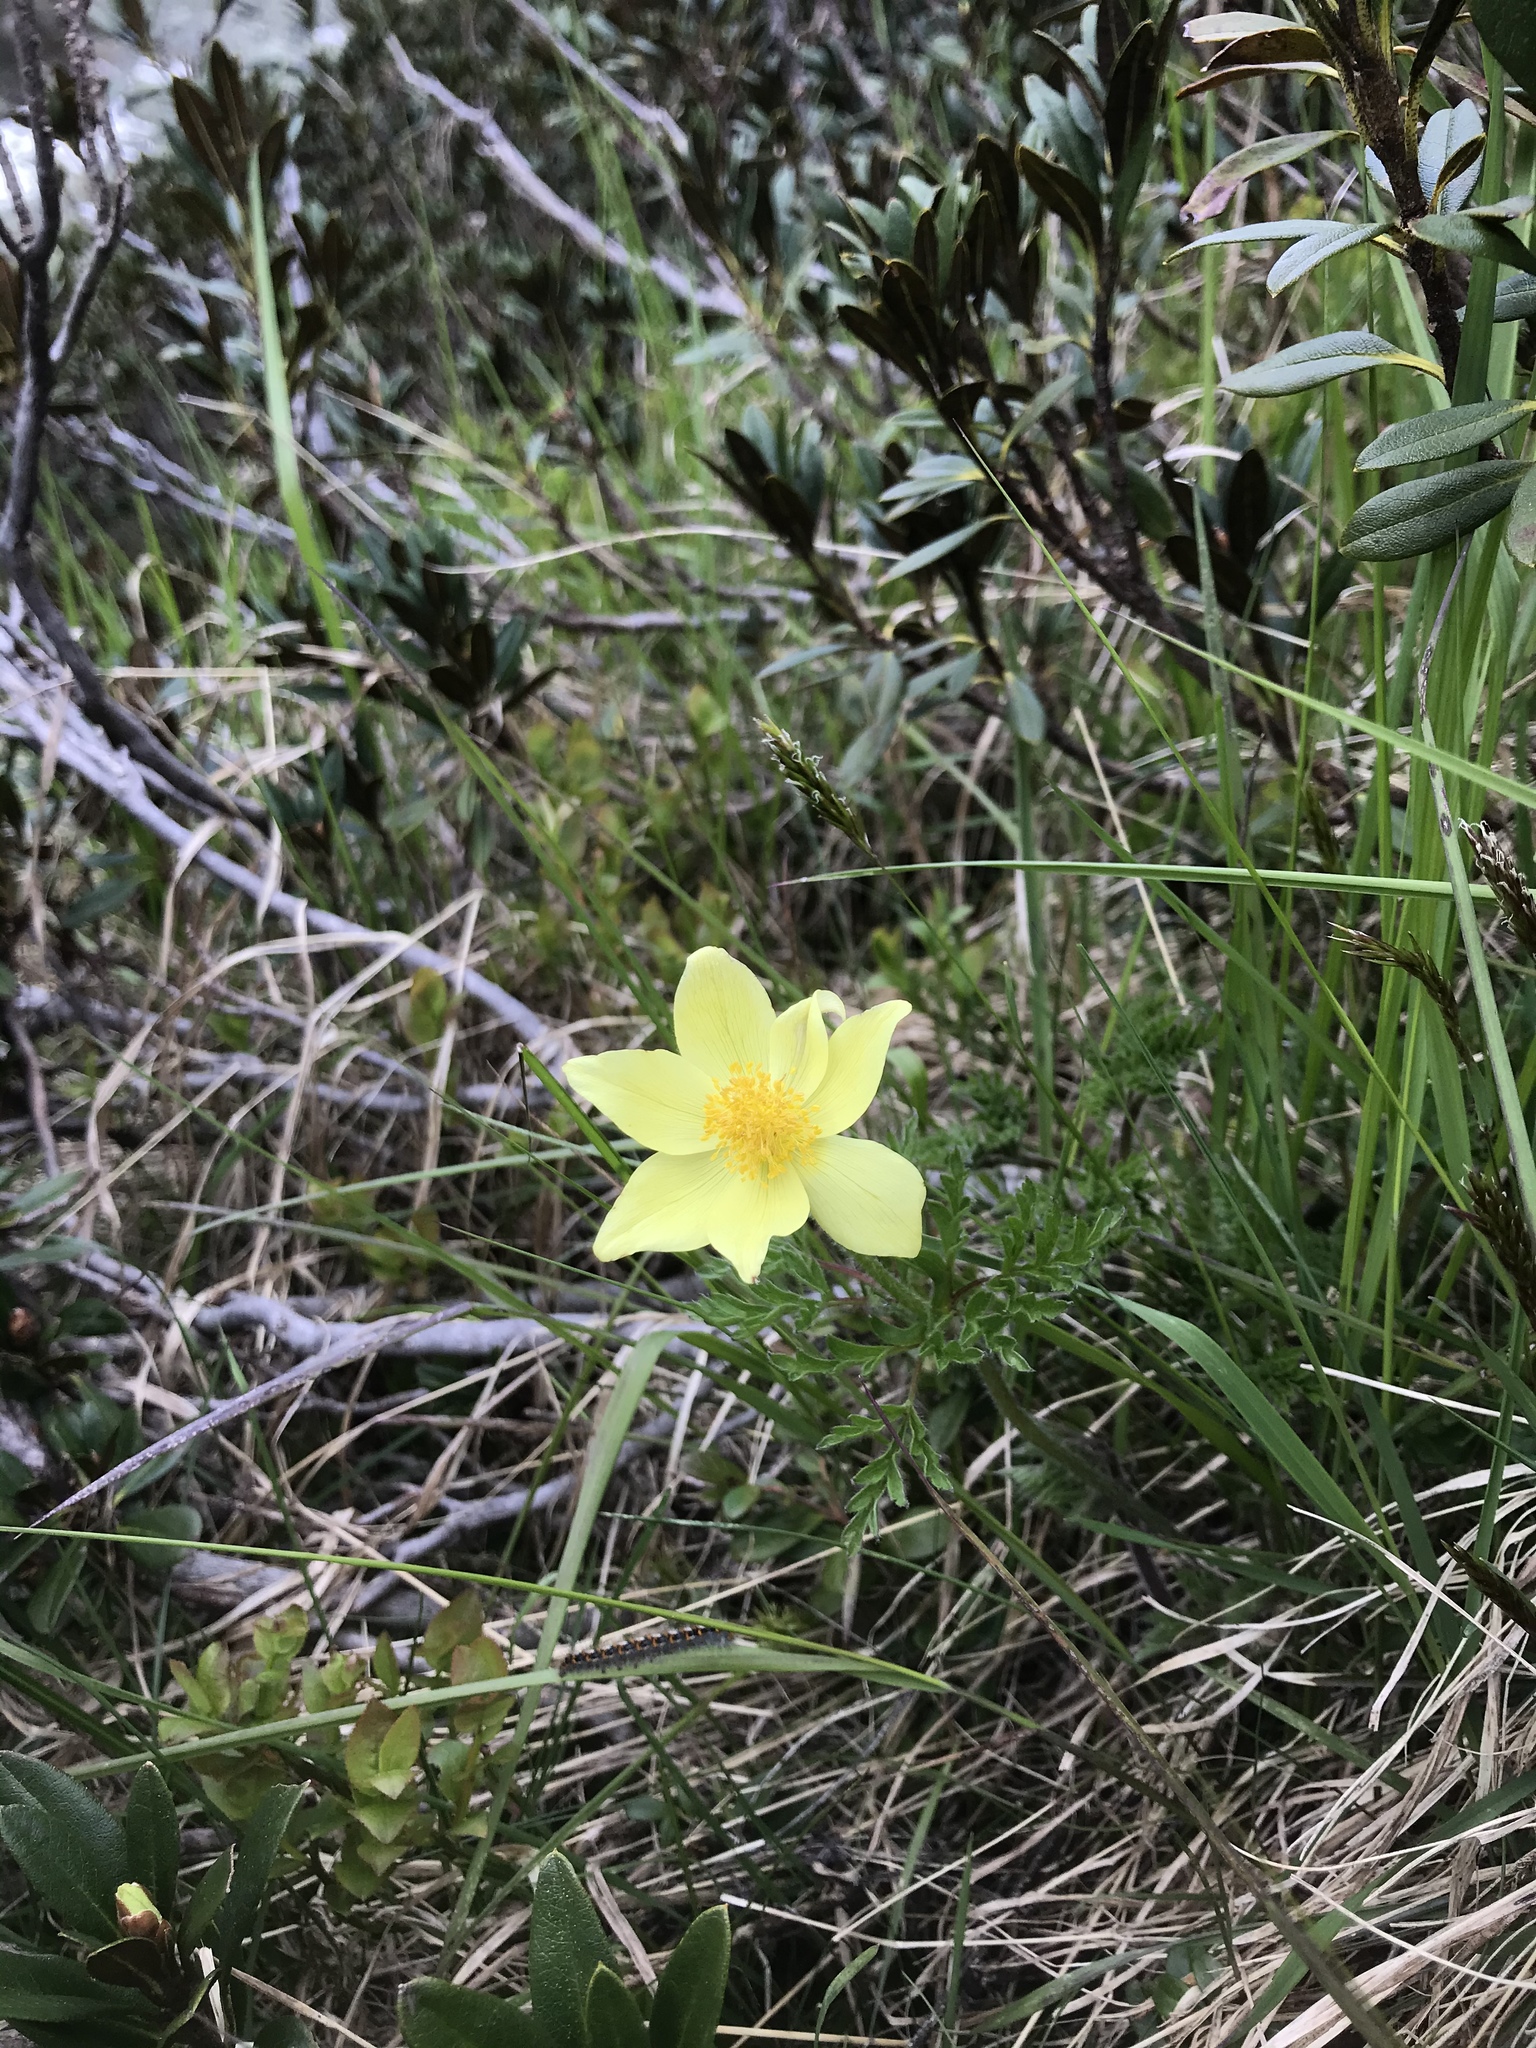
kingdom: Plantae
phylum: Tracheophyta
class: Magnoliopsida
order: Ranunculales
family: Ranunculaceae
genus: Pulsatilla
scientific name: Pulsatilla alpina
